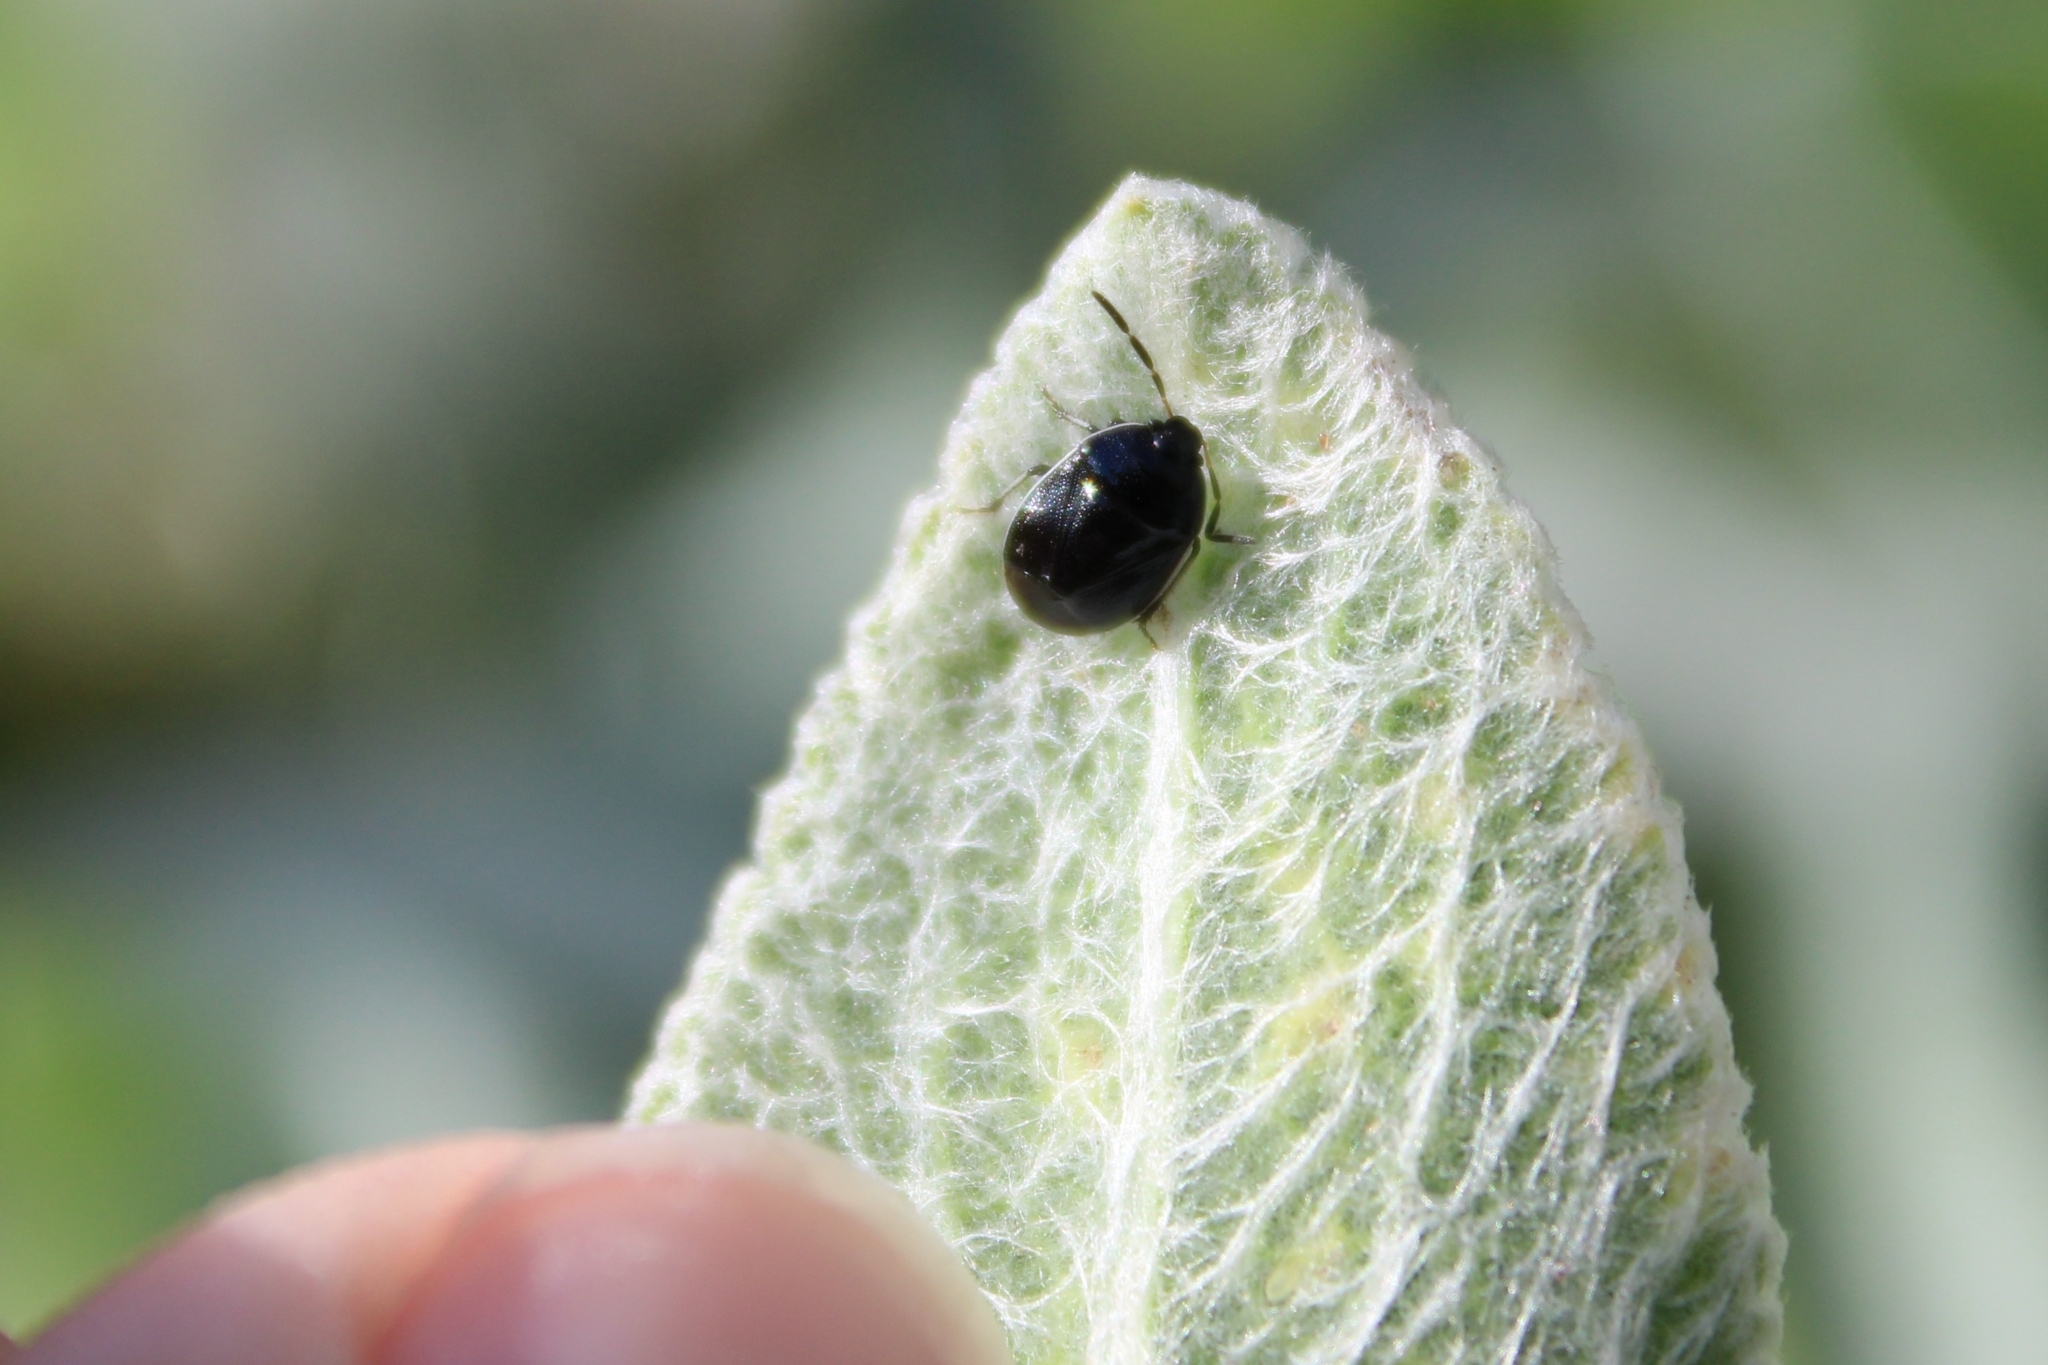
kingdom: Animalia
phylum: Arthropoda
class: Insecta
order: Hemiptera
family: Cydnidae
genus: Sehirus
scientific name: Sehirus cinctus
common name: White-margined burrower bug
